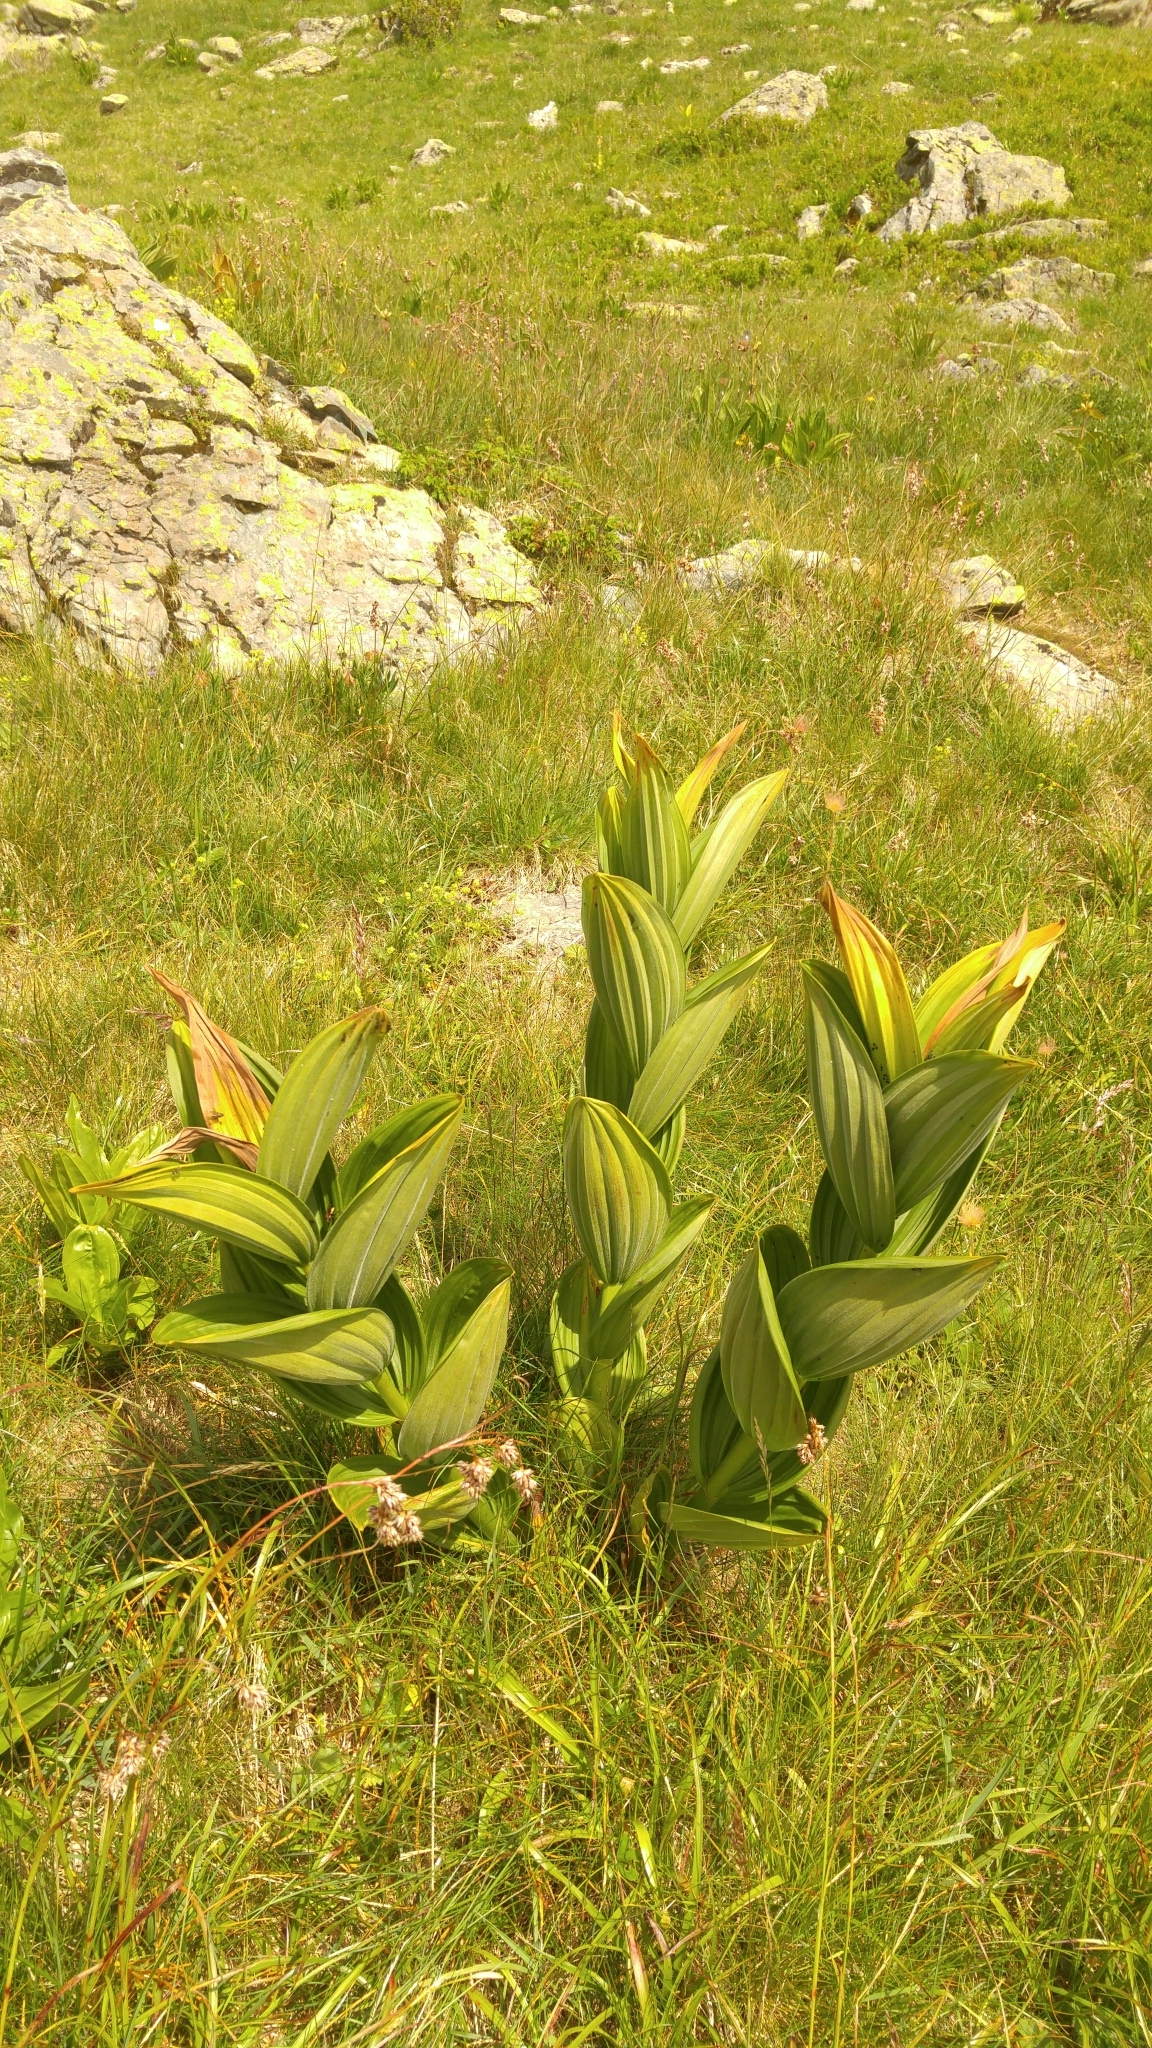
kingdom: Plantae
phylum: Tracheophyta
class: Liliopsida
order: Liliales
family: Melanthiaceae
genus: Veratrum
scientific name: Veratrum album
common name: White veratrum
